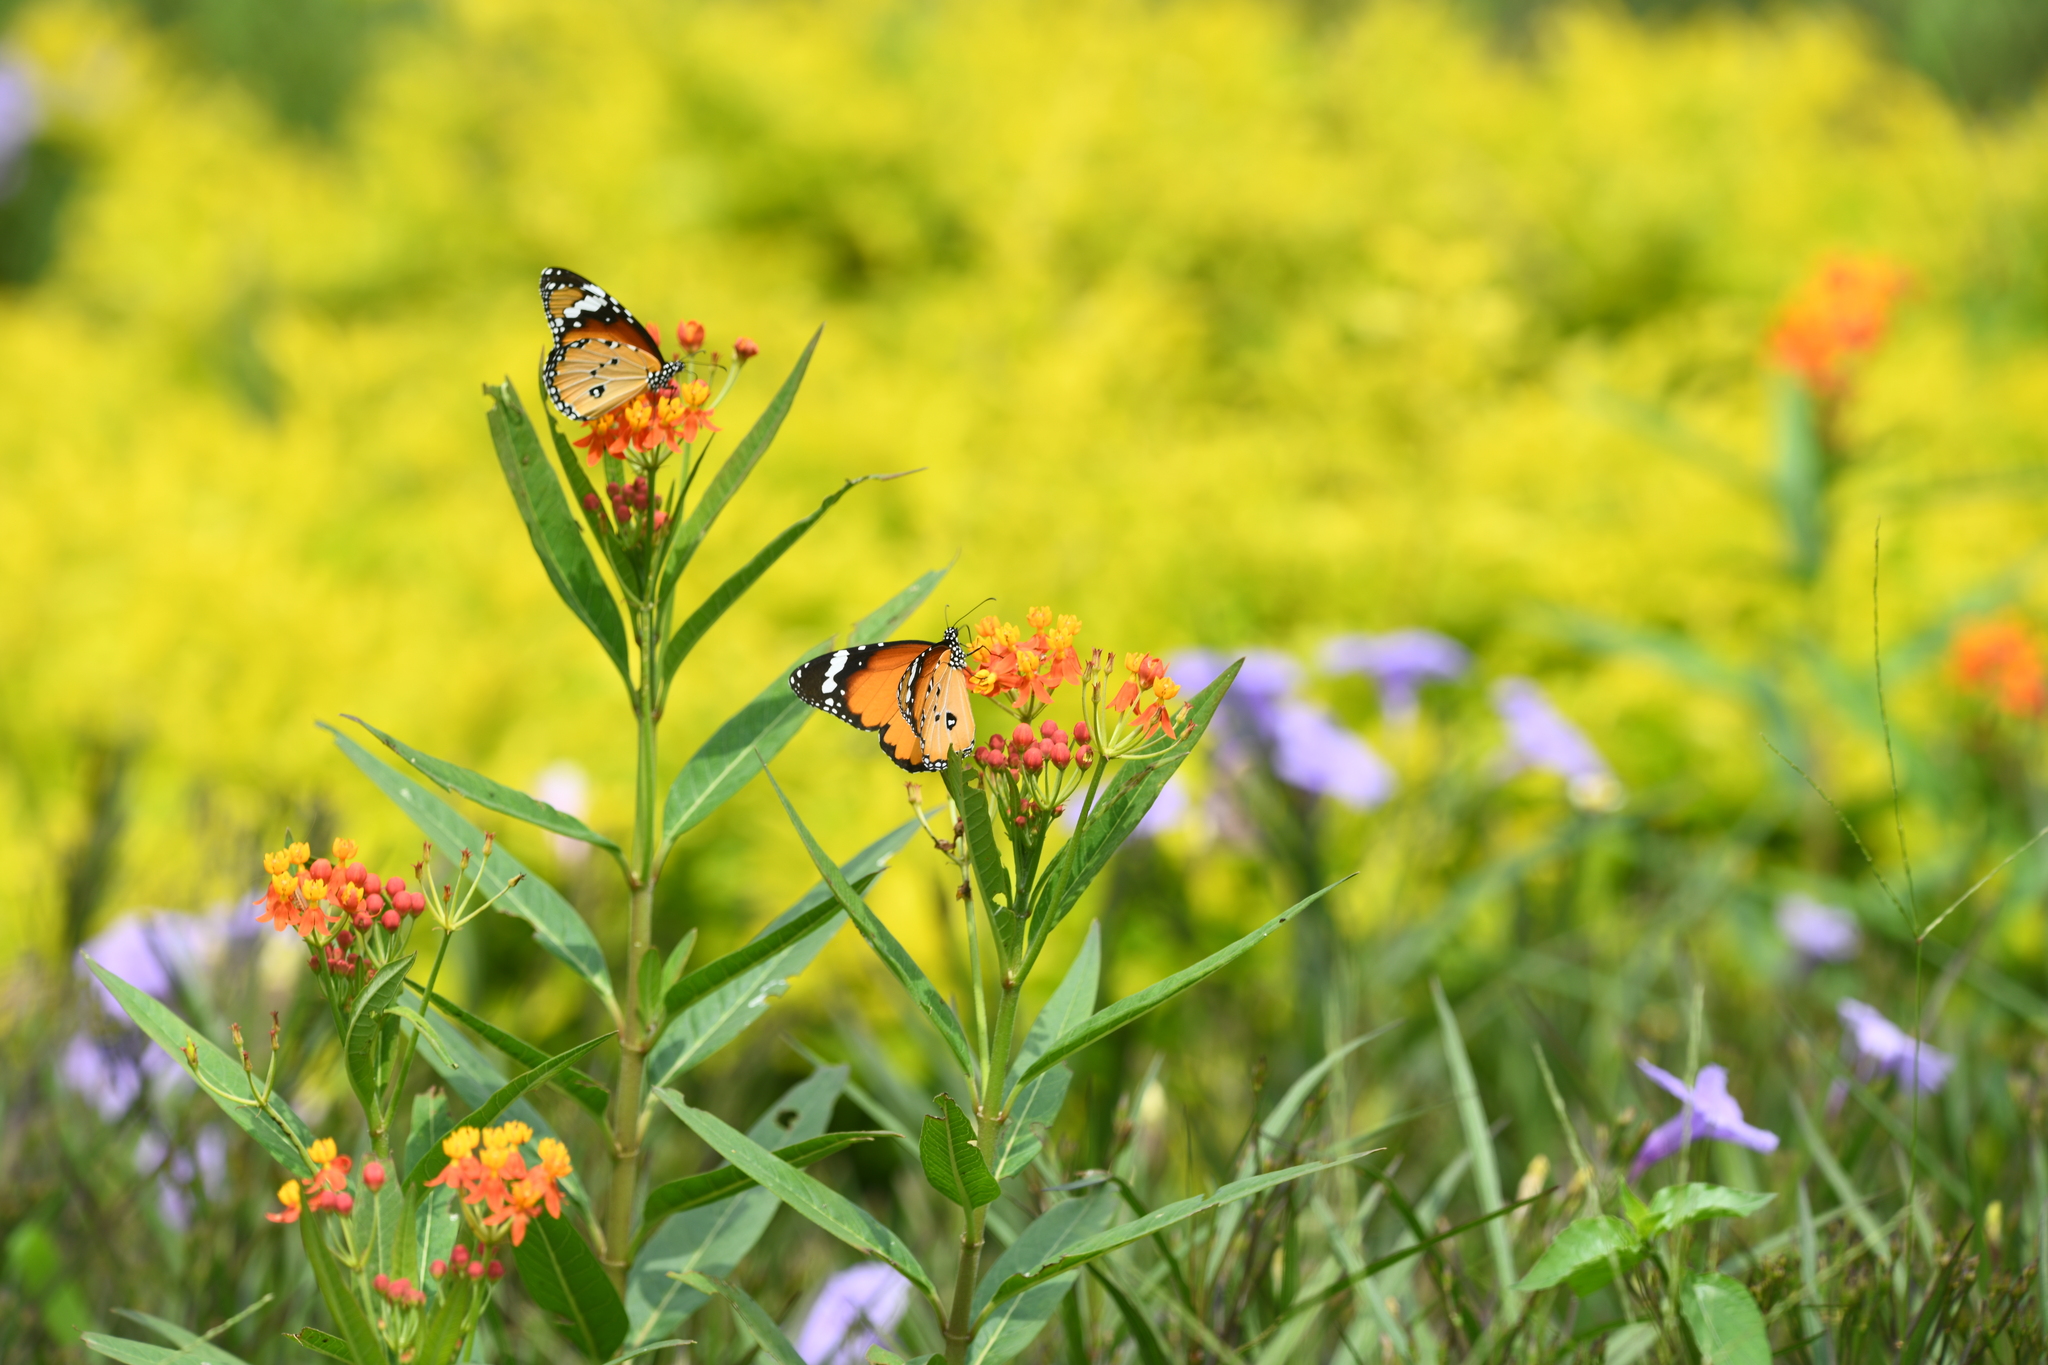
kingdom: Animalia
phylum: Arthropoda
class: Insecta
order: Lepidoptera
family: Nymphalidae
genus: Danaus
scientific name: Danaus chrysippus
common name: Plain tiger
